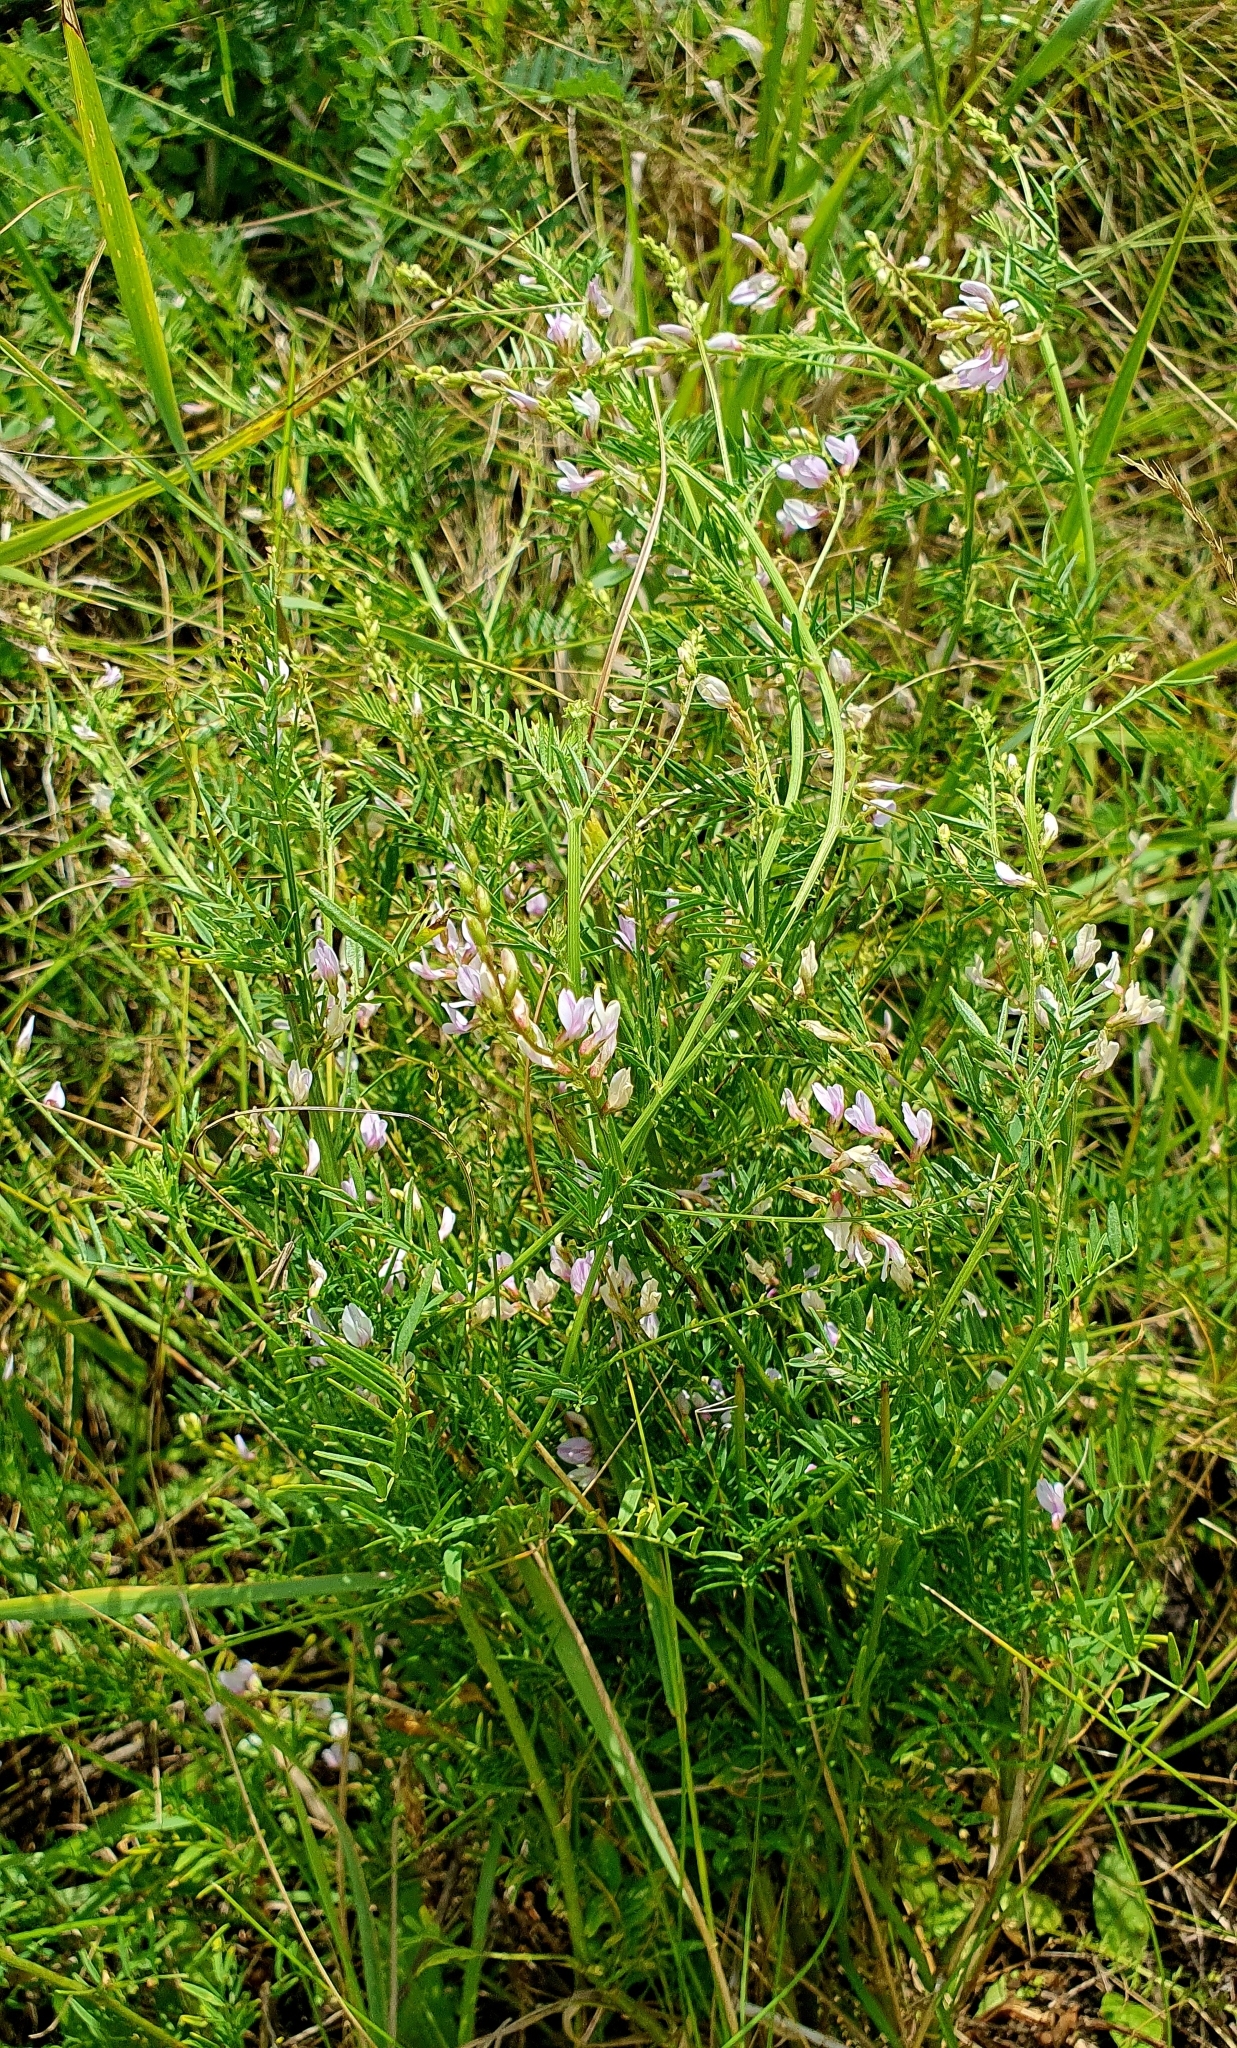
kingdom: Plantae
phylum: Tracheophyta
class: Magnoliopsida
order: Fabales
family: Fabaceae
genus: Astragalus
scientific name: Astragalus sulcatus
